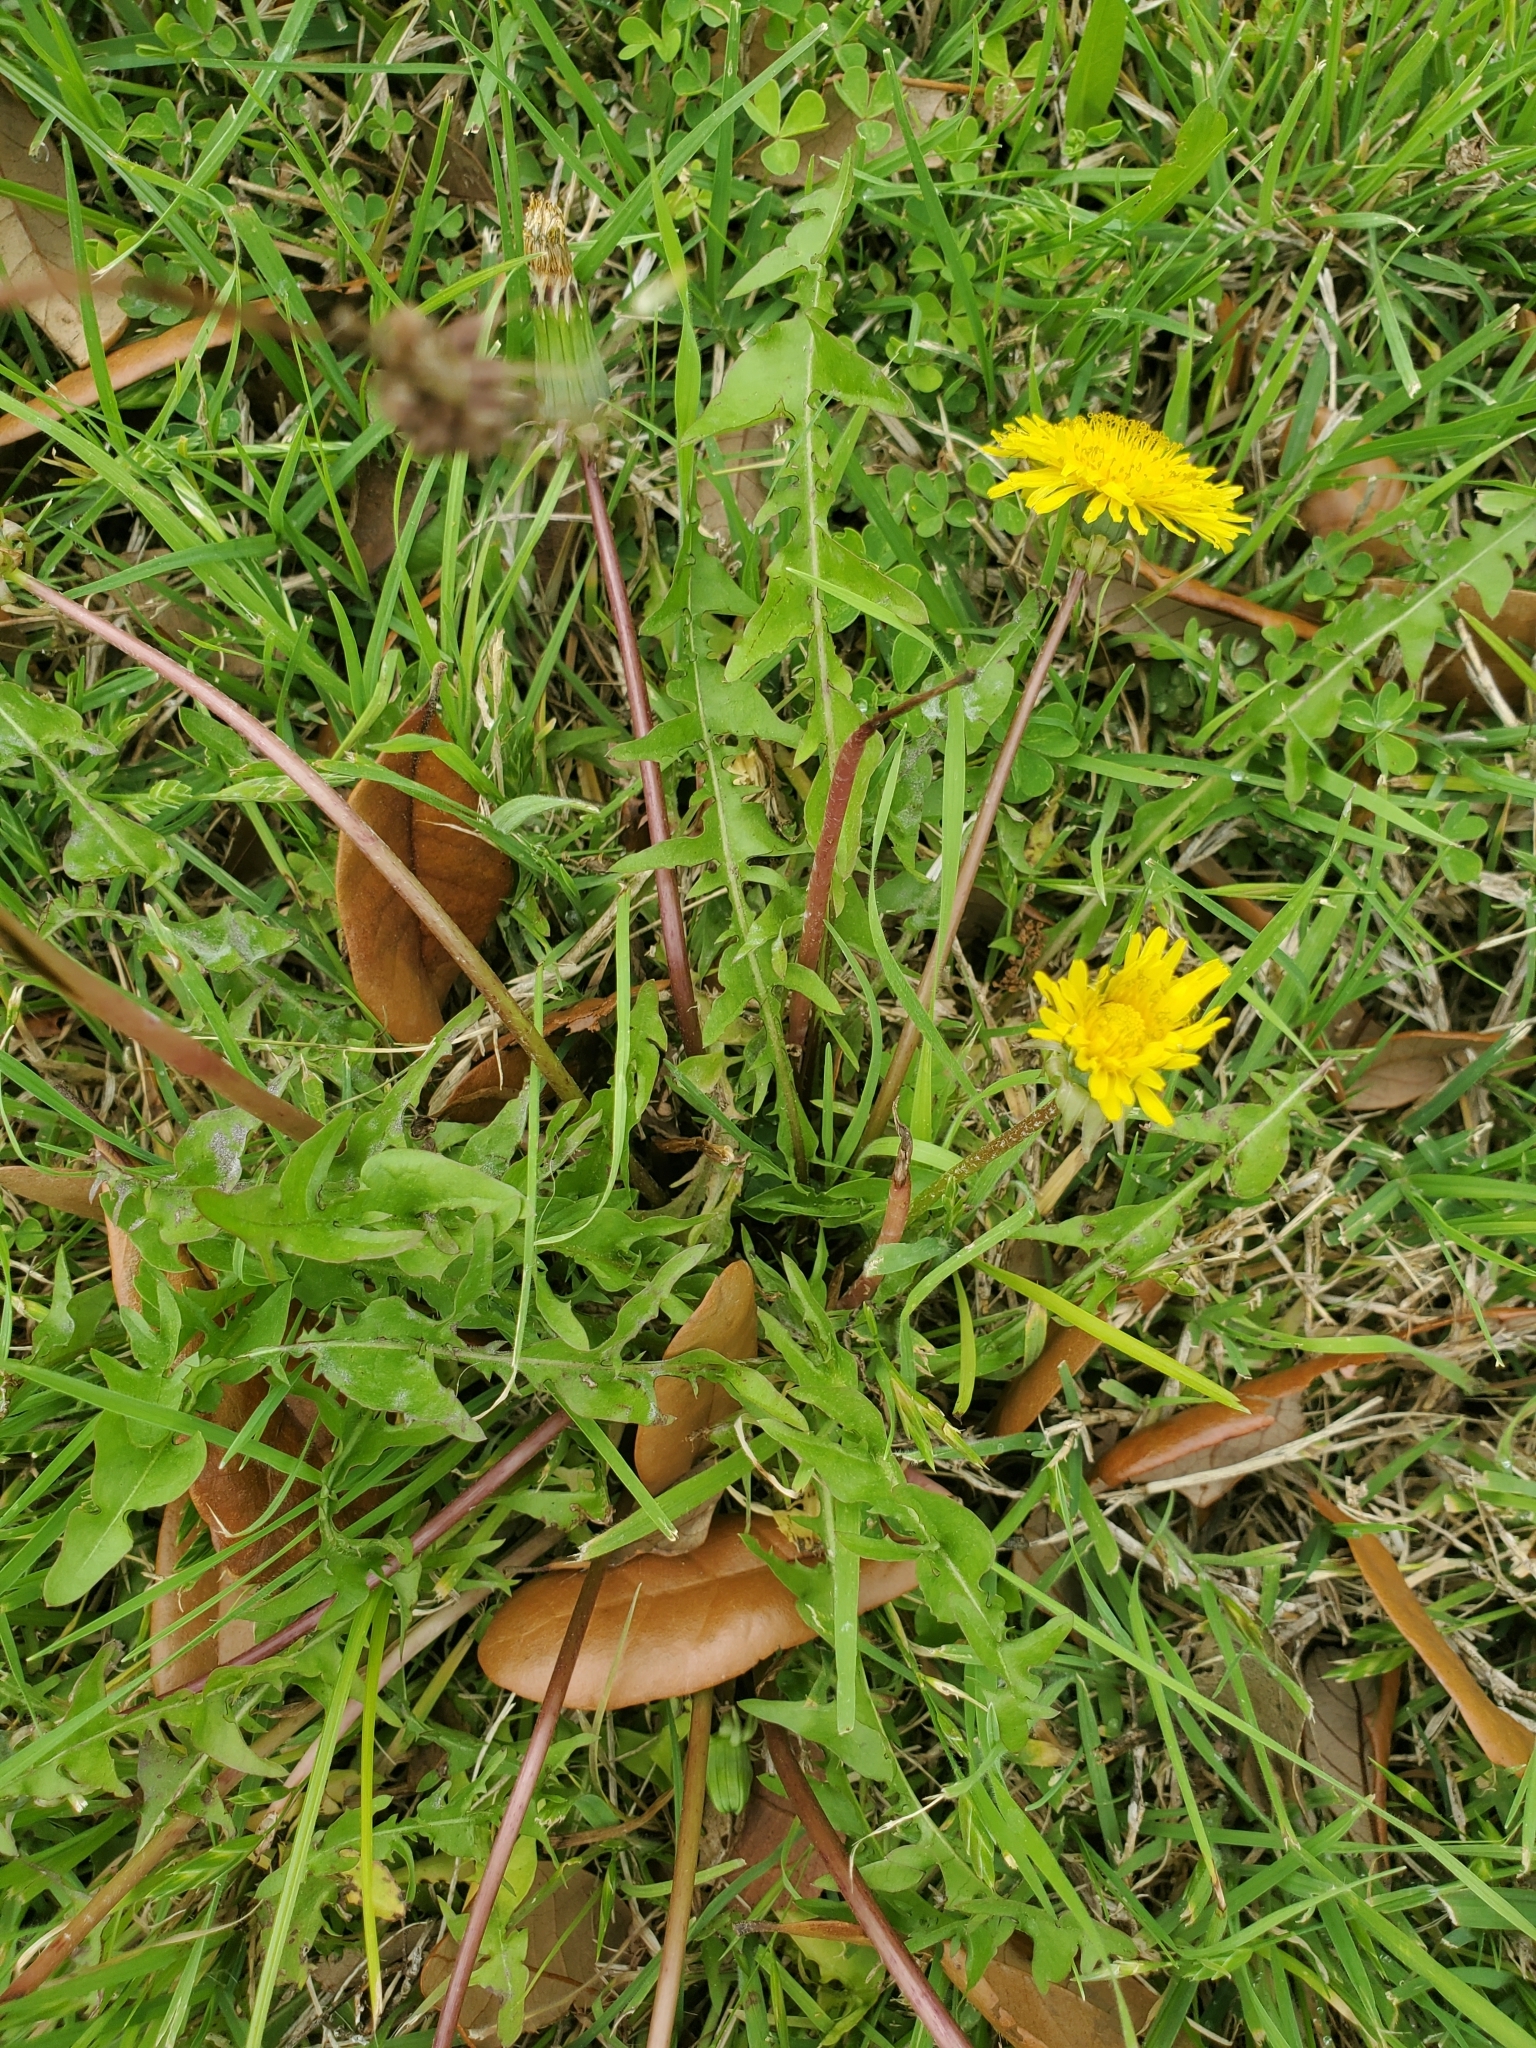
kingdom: Plantae
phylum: Tracheophyta
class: Magnoliopsida
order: Asterales
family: Asteraceae
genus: Taraxacum
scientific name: Taraxacum
